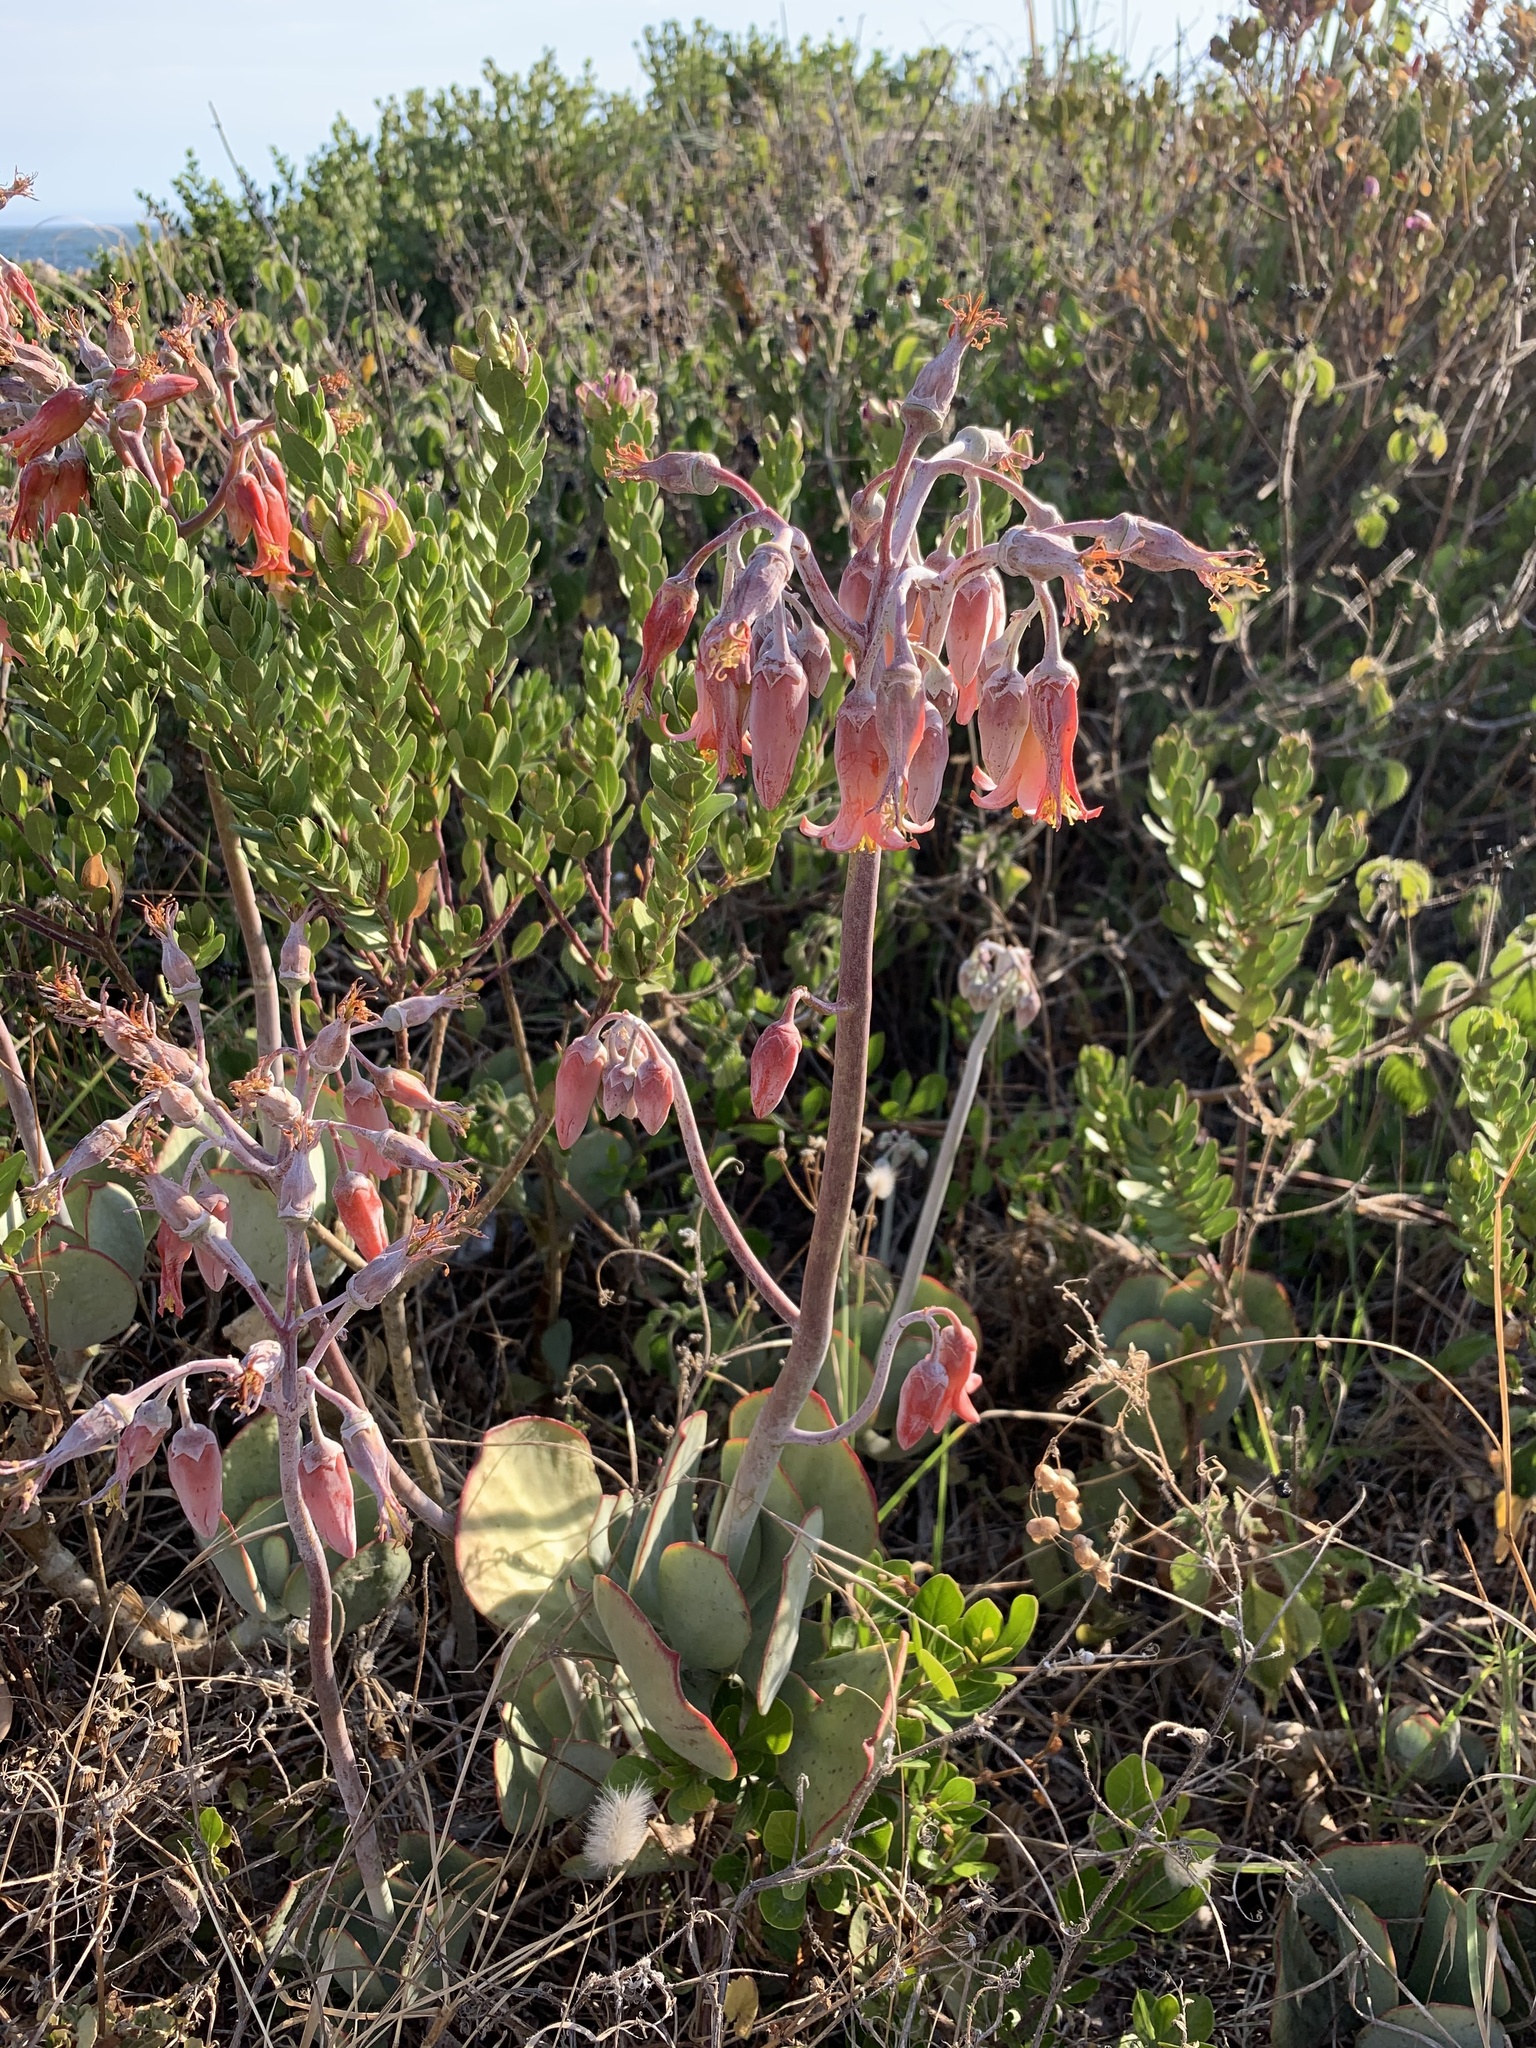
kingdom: Plantae
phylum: Tracheophyta
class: Magnoliopsida
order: Saxifragales
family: Crassulaceae
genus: Cotyledon
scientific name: Cotyledon orbiculata
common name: Pig's ear
